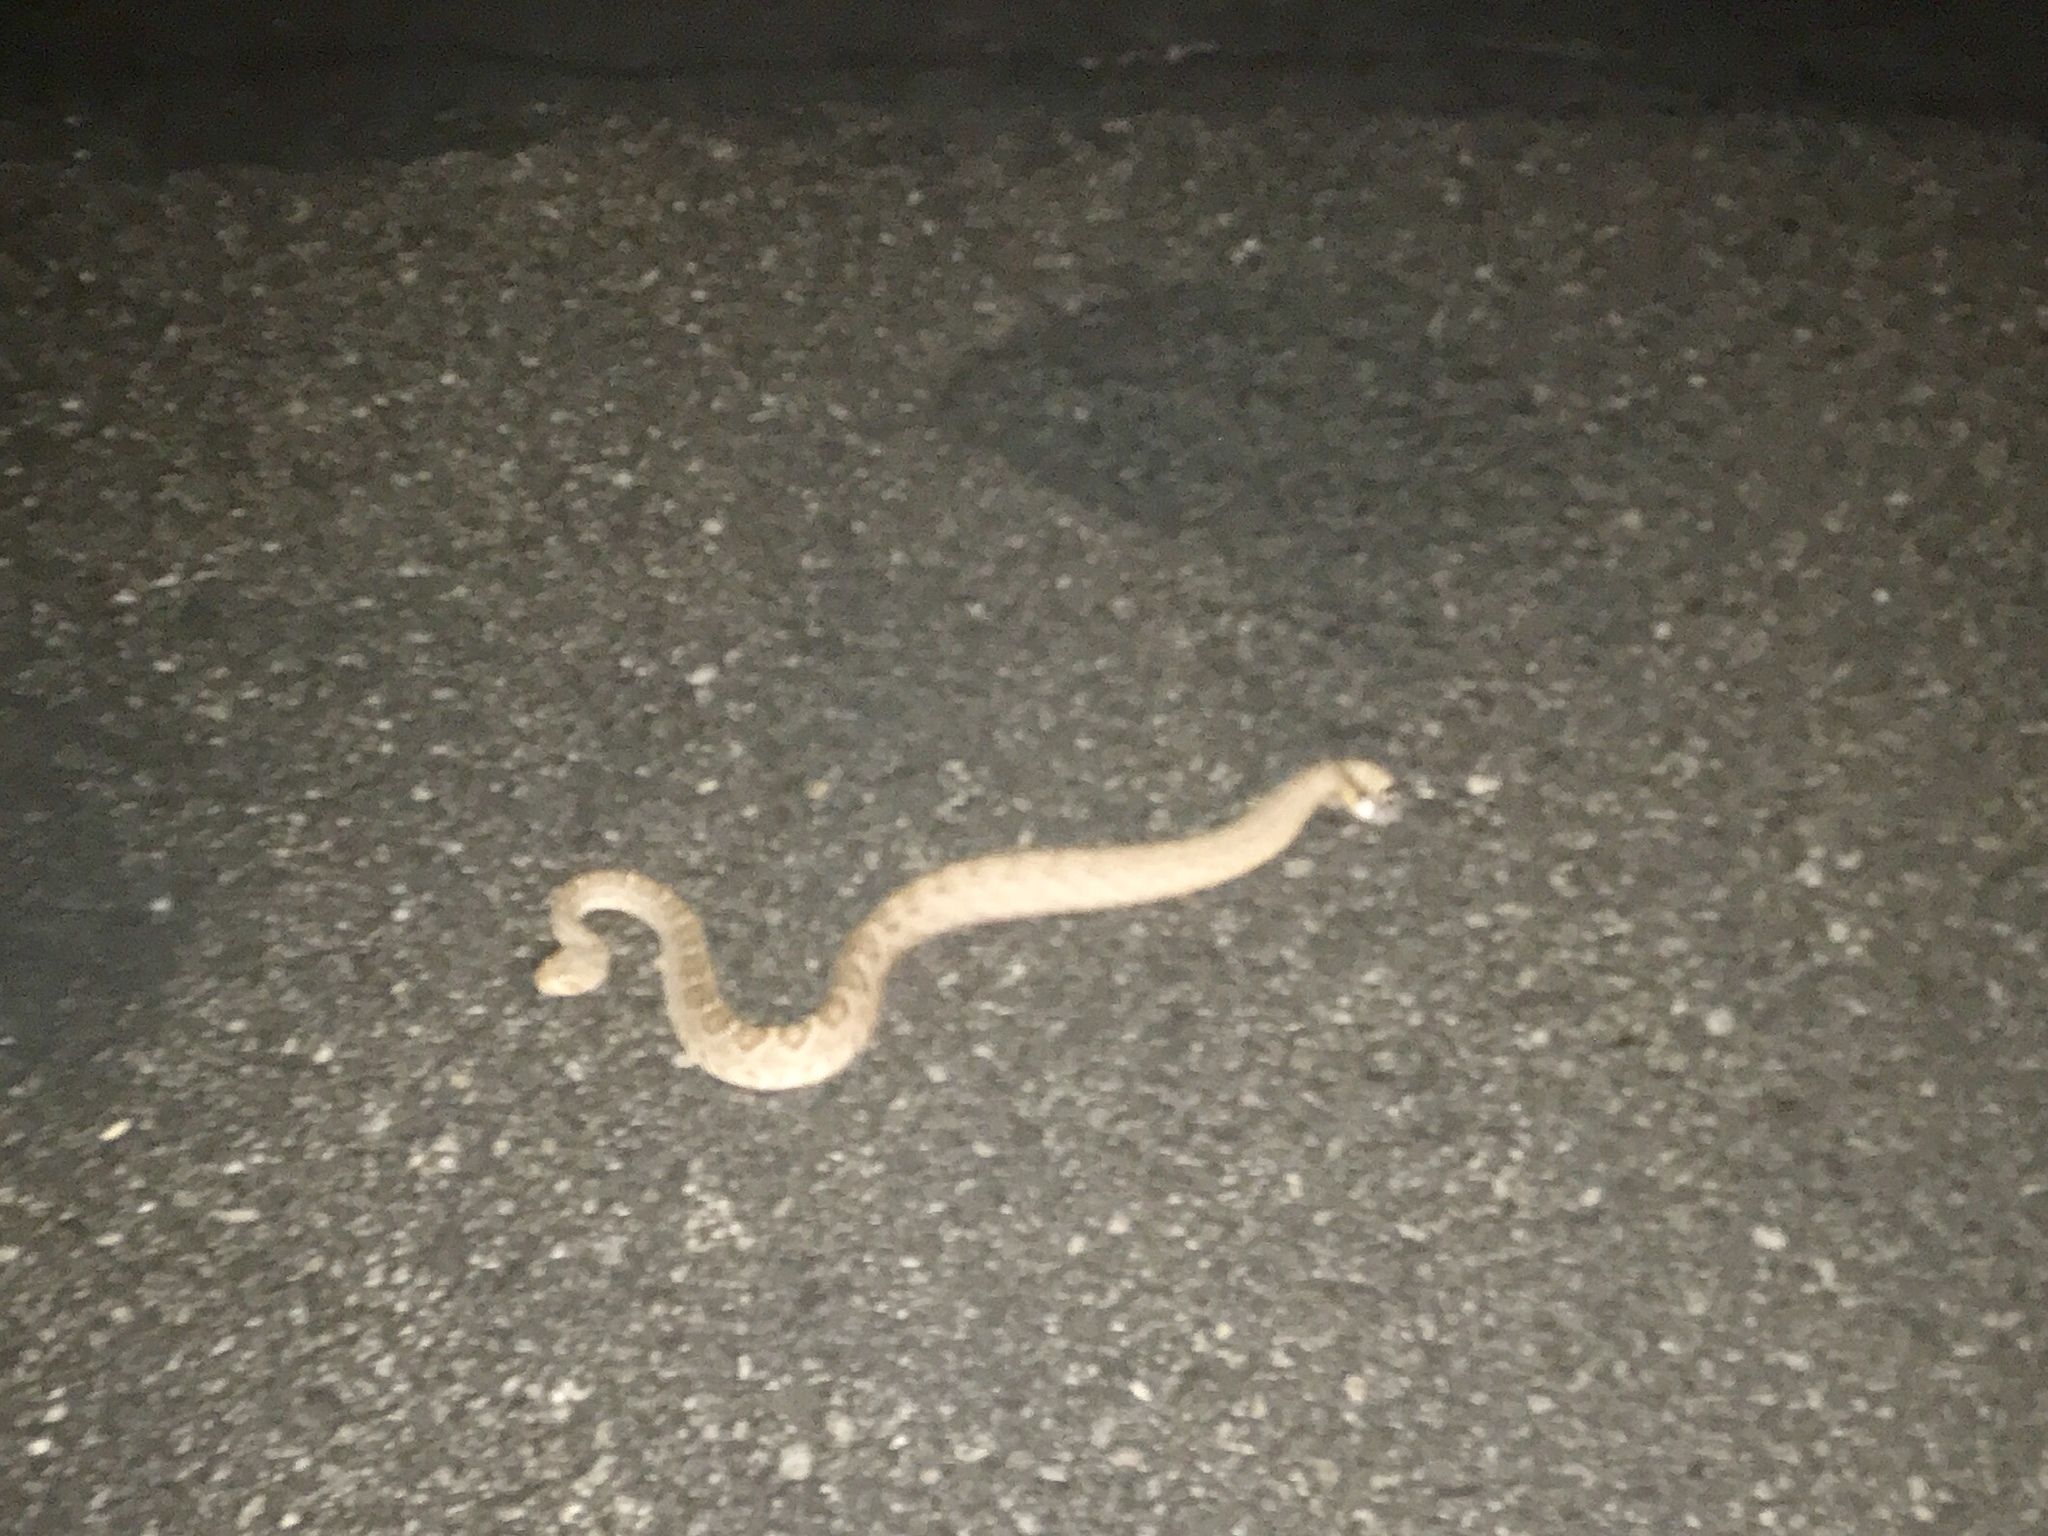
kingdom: Animalia
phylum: Chordata
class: Squamata
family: Viperidae
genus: Crotalus
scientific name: Crotalus atrox
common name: Western diamond-backed rattlesnake
